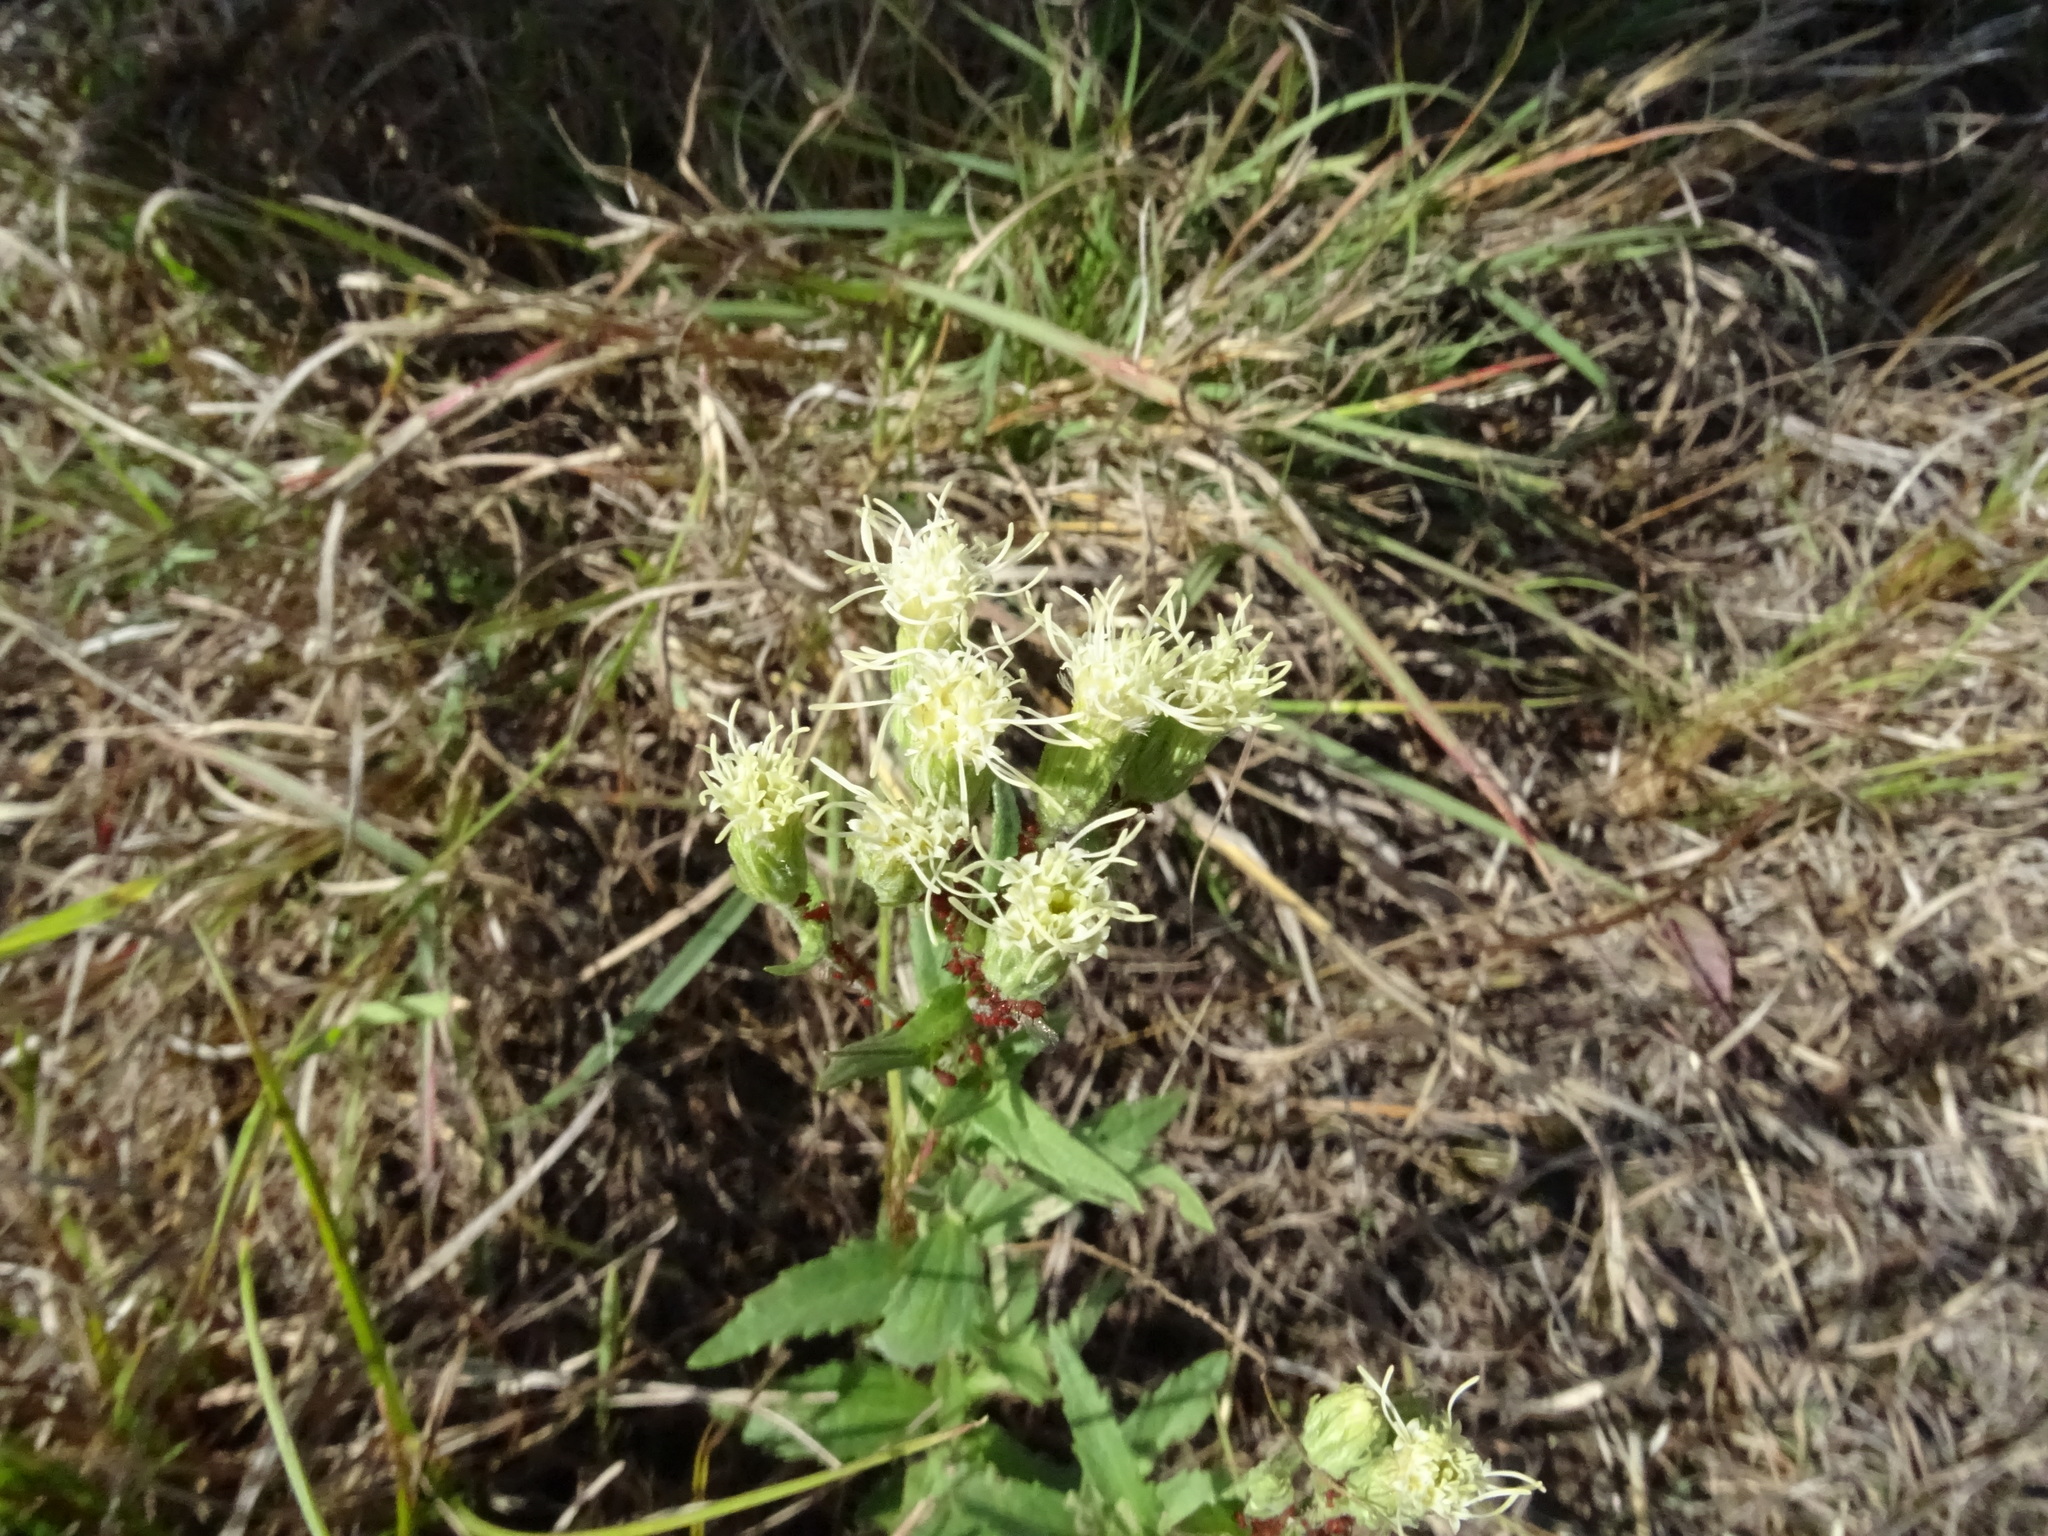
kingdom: Plantae
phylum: Tracheophyta
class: Magnoliopsida
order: Asterales
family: Asteraceae
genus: Brickellia
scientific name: Brickellia eupatorioides
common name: False boneset
